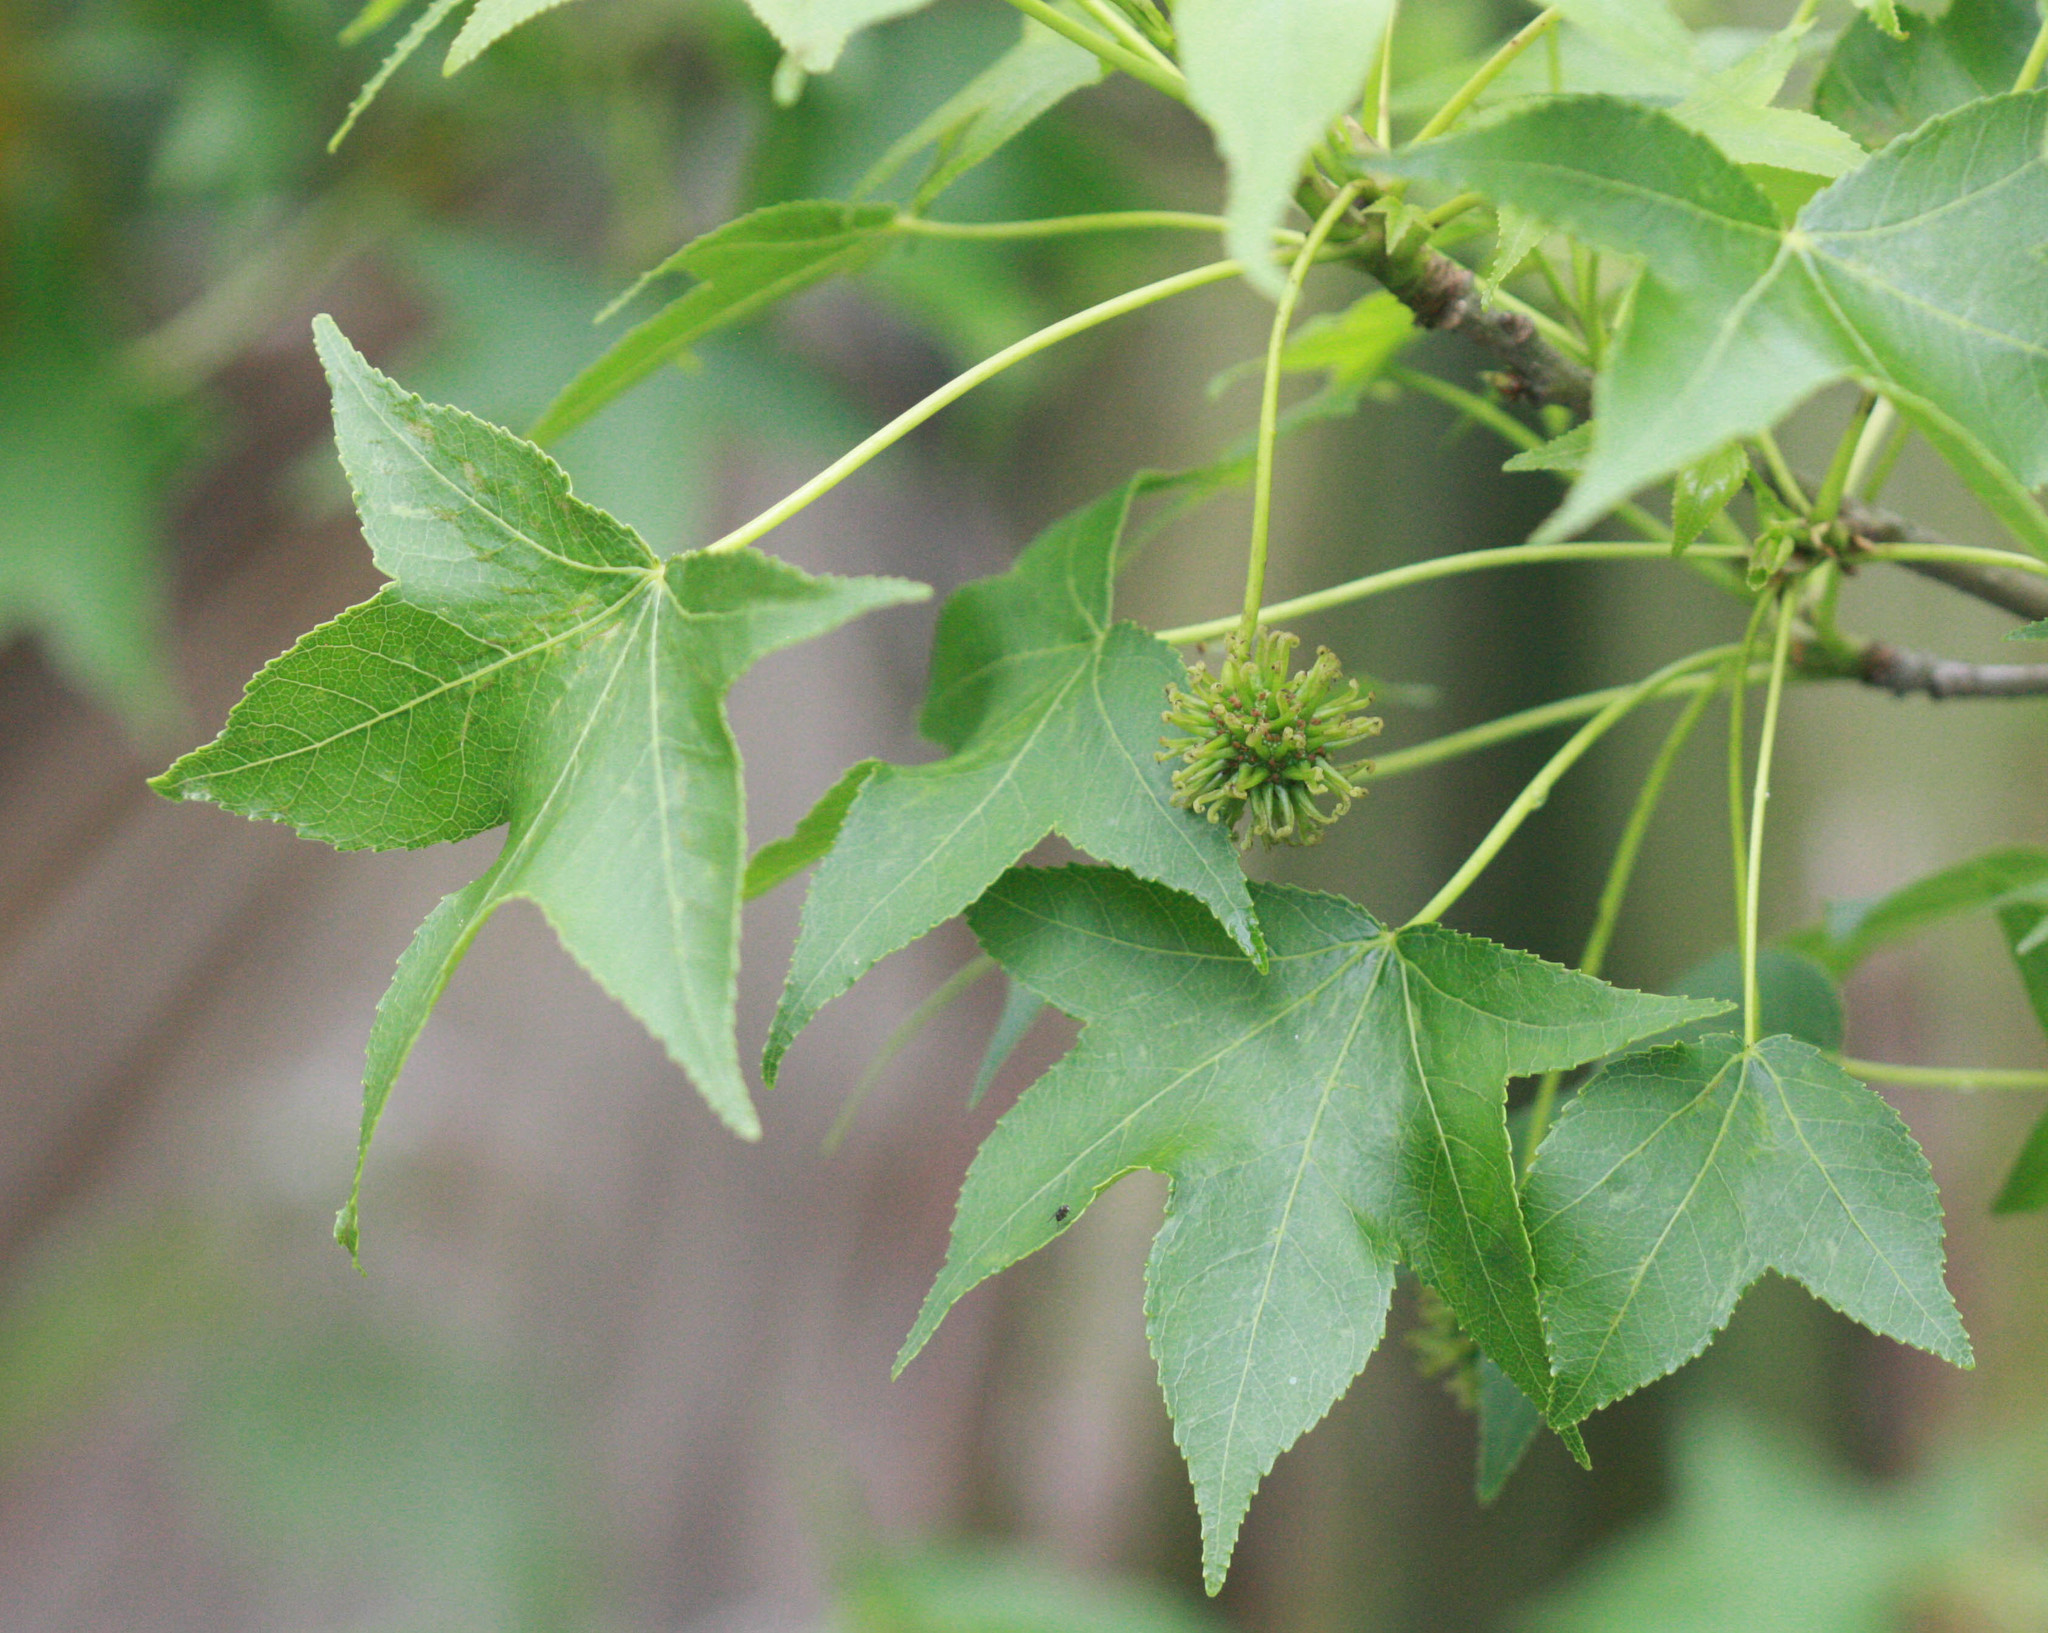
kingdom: Plantae
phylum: Tracheophyta
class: Magnoliopsida
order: Saxifragales
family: Altingiaceae
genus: Liquidambar
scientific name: Liquidambar styraciflua
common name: Sweet gum
